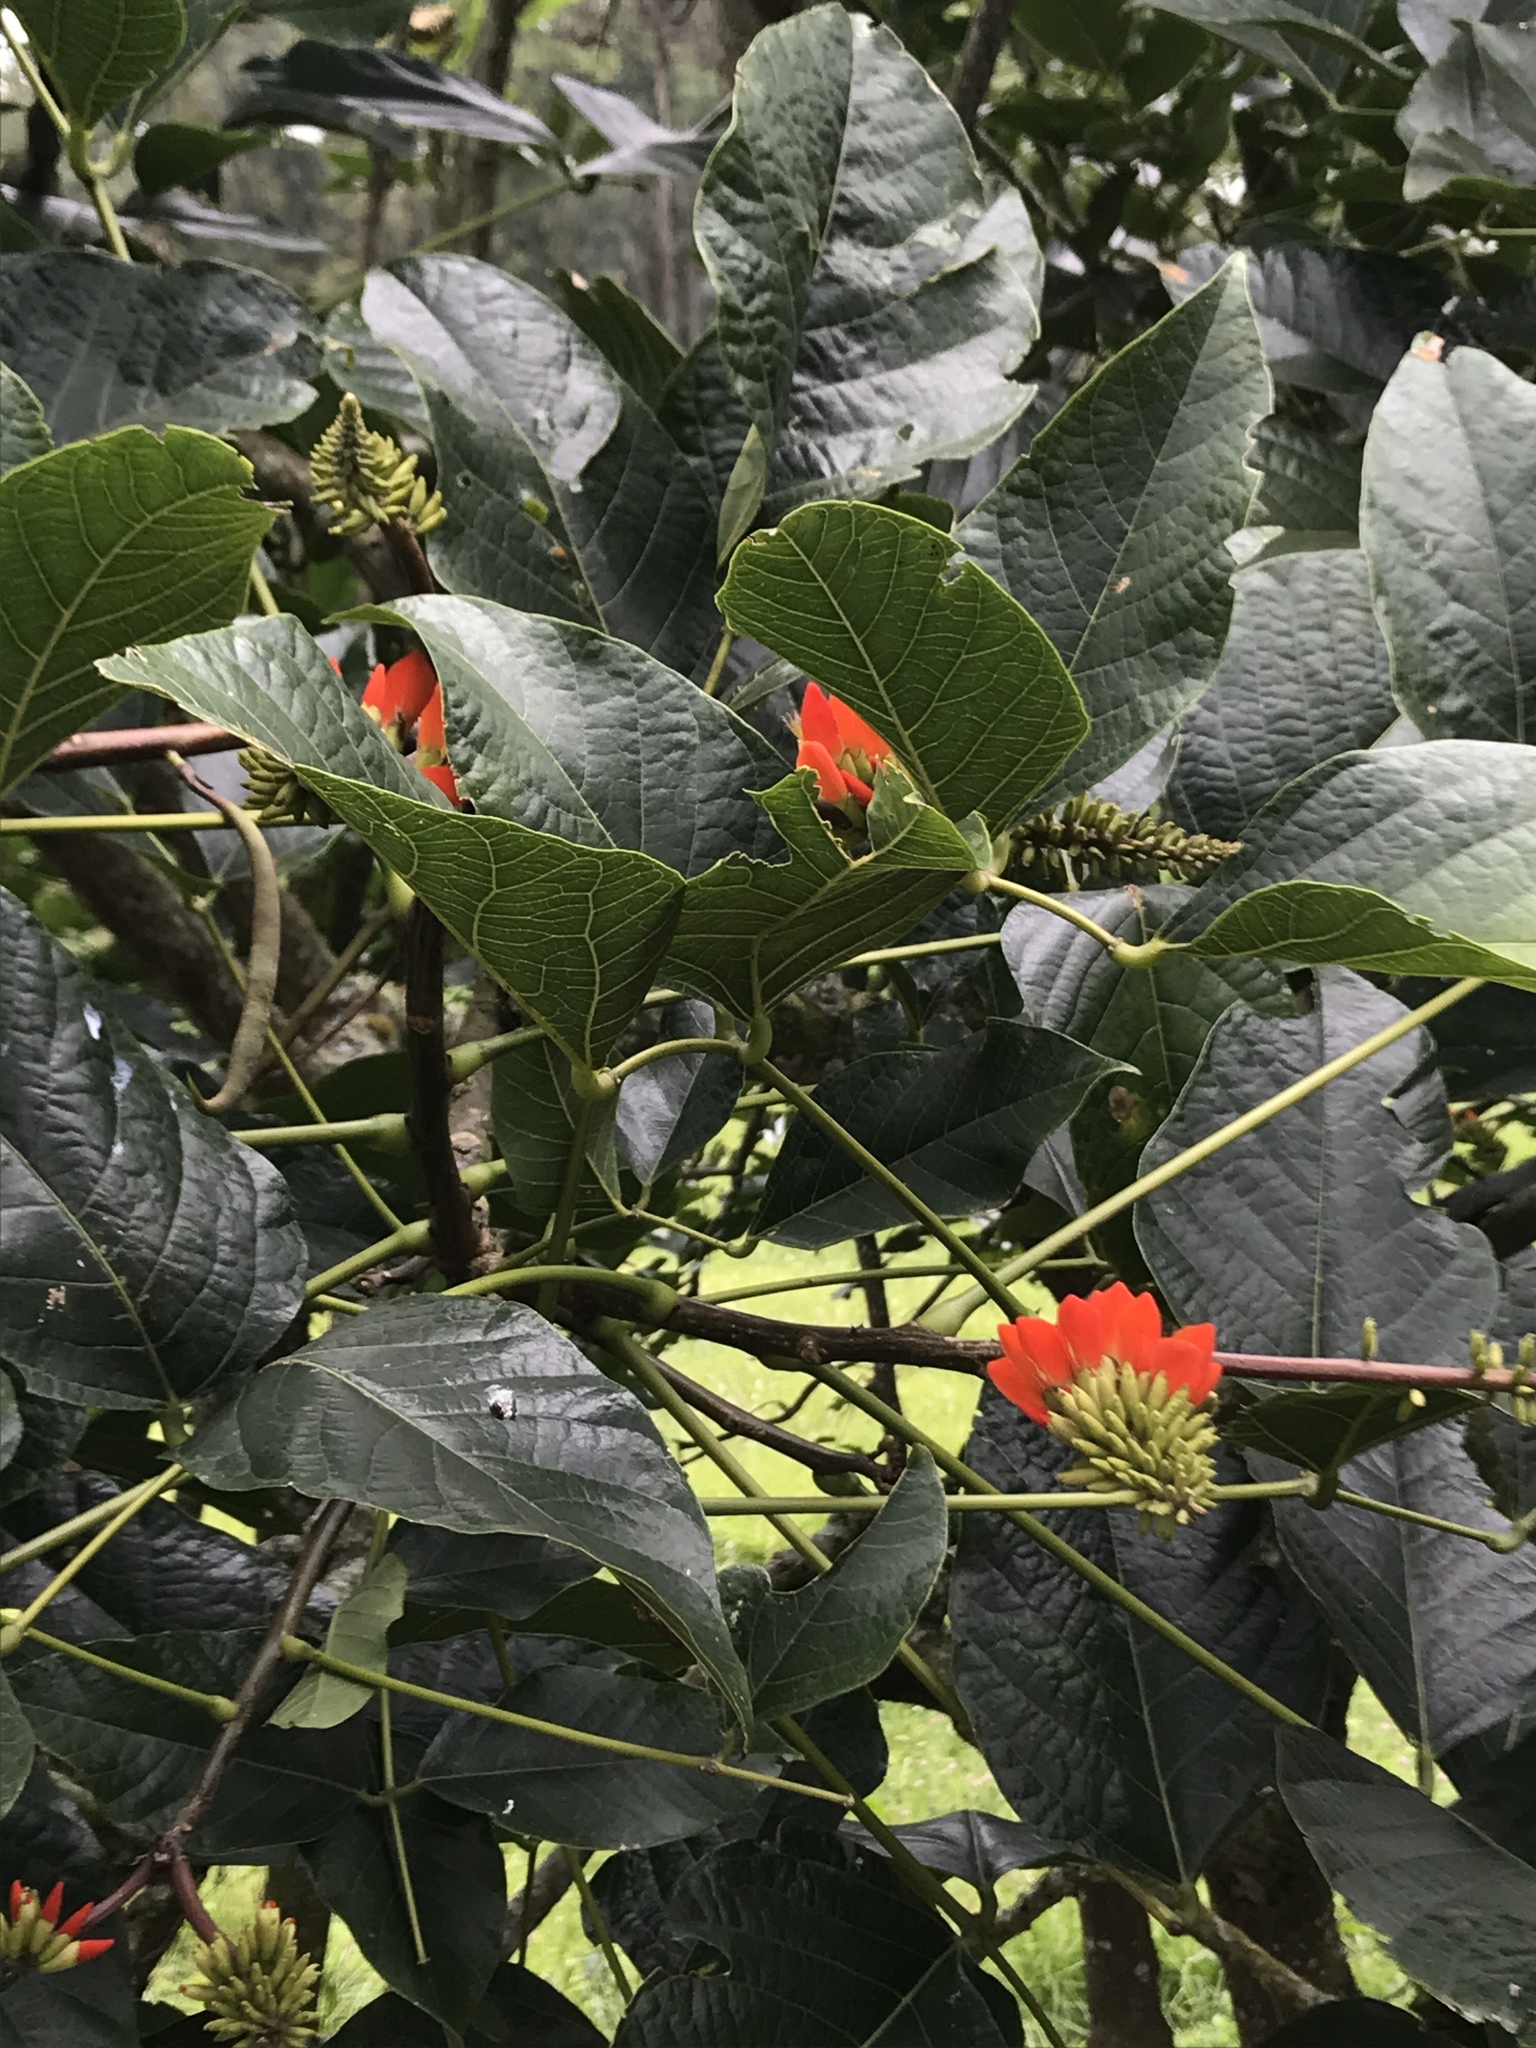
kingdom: Plantae
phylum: Tracheophyta
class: Magnoliopsida
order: Fabales
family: Fabaceae
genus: Erythrina
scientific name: Erythrina edulis
